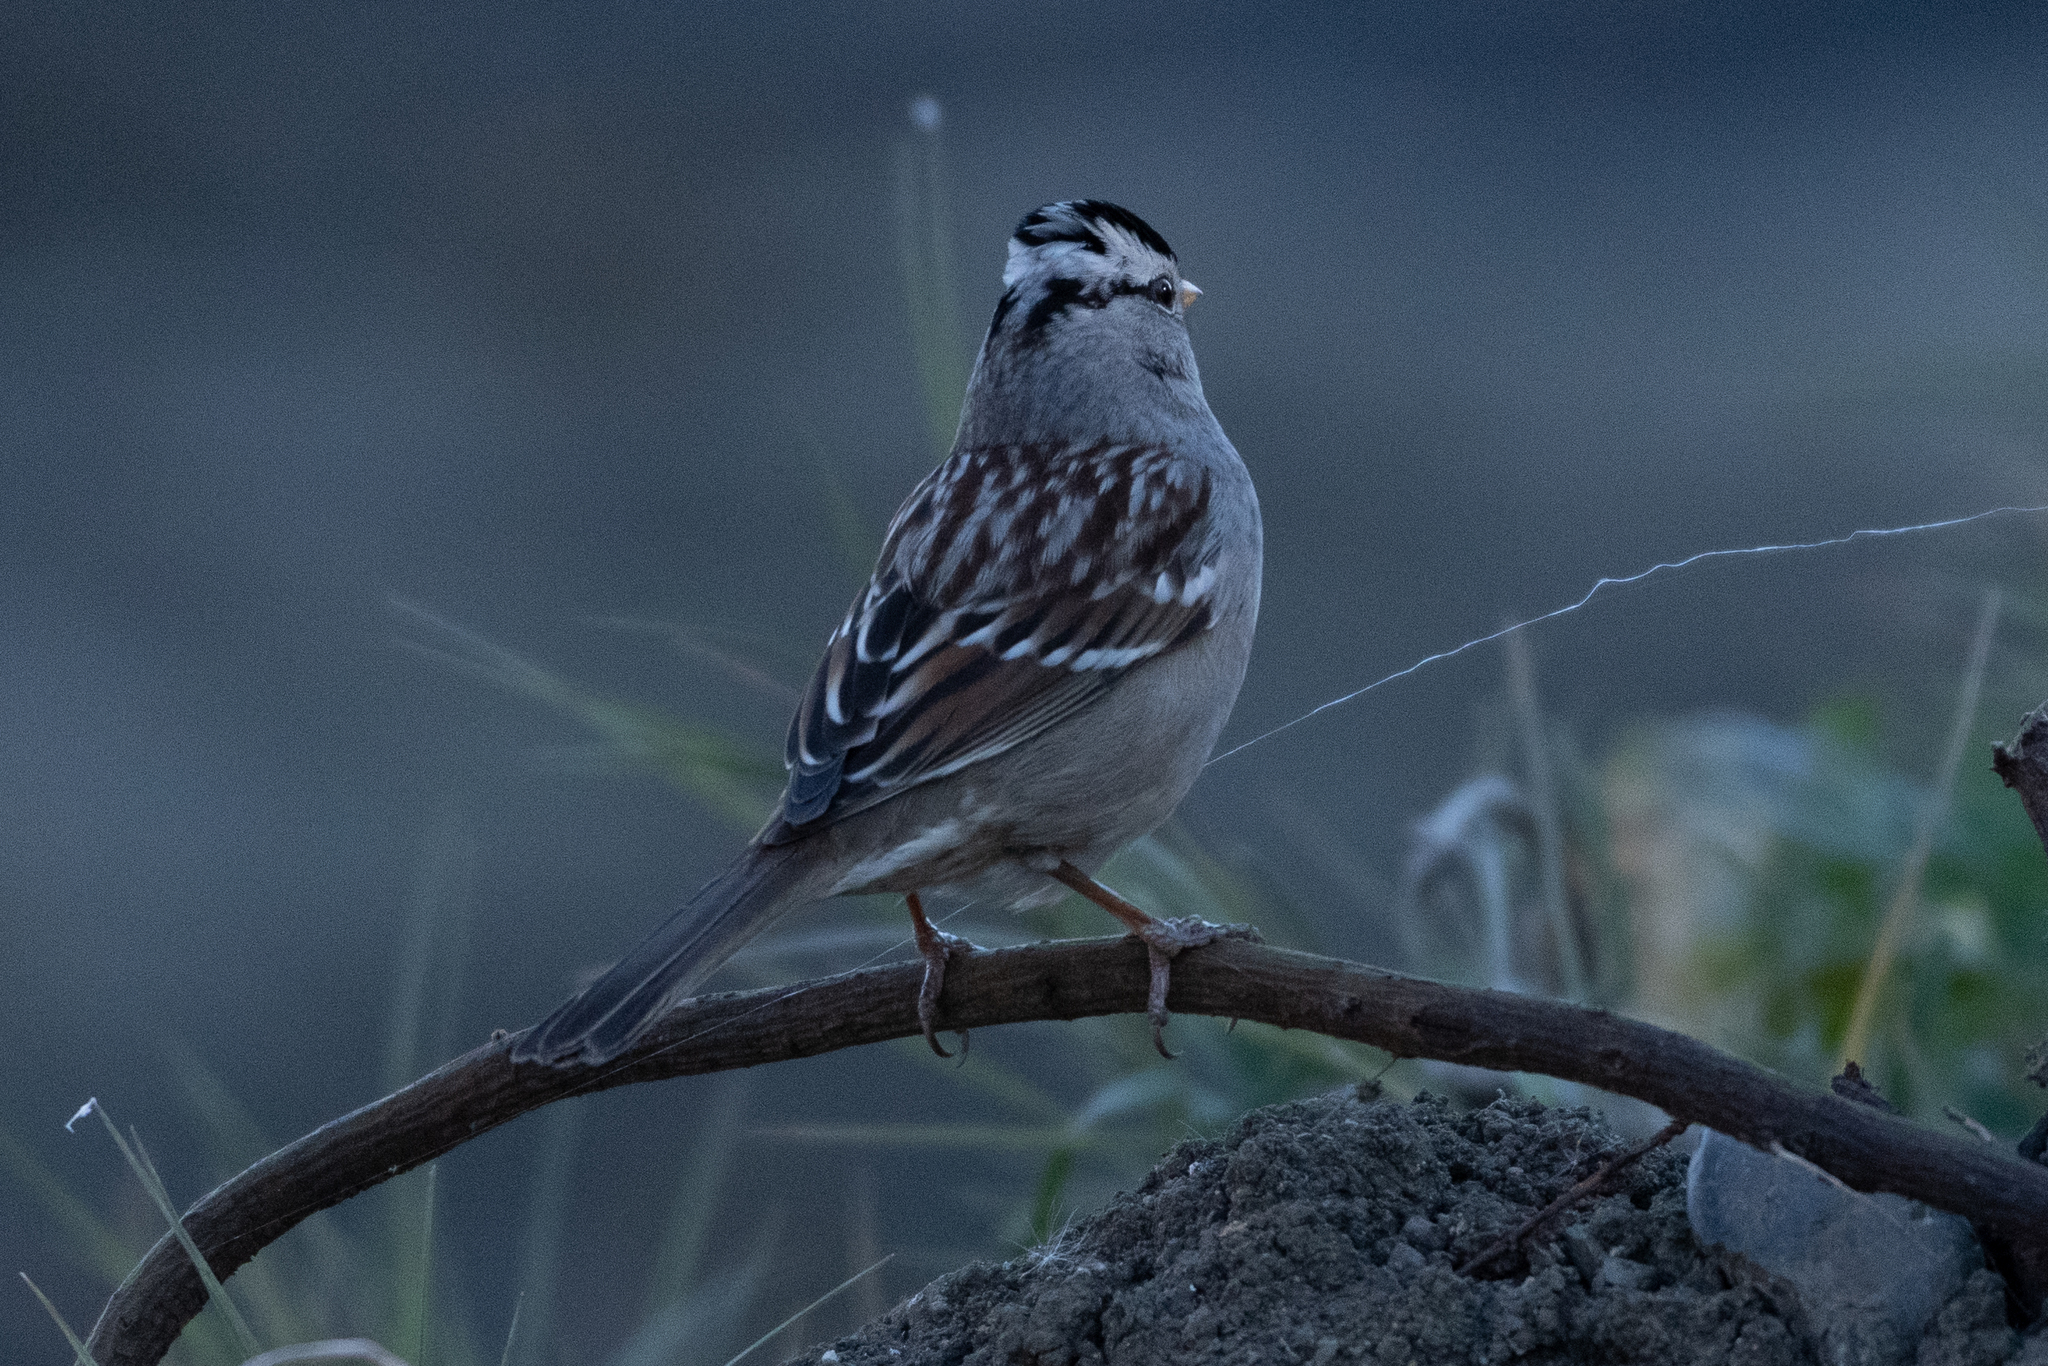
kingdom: Animalia
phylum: Chordata
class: Aves
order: Passeriformes
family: Passerellidae
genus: Zonotrichia
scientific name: Zonotrichia leucophrys
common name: White-crowned sparrow
